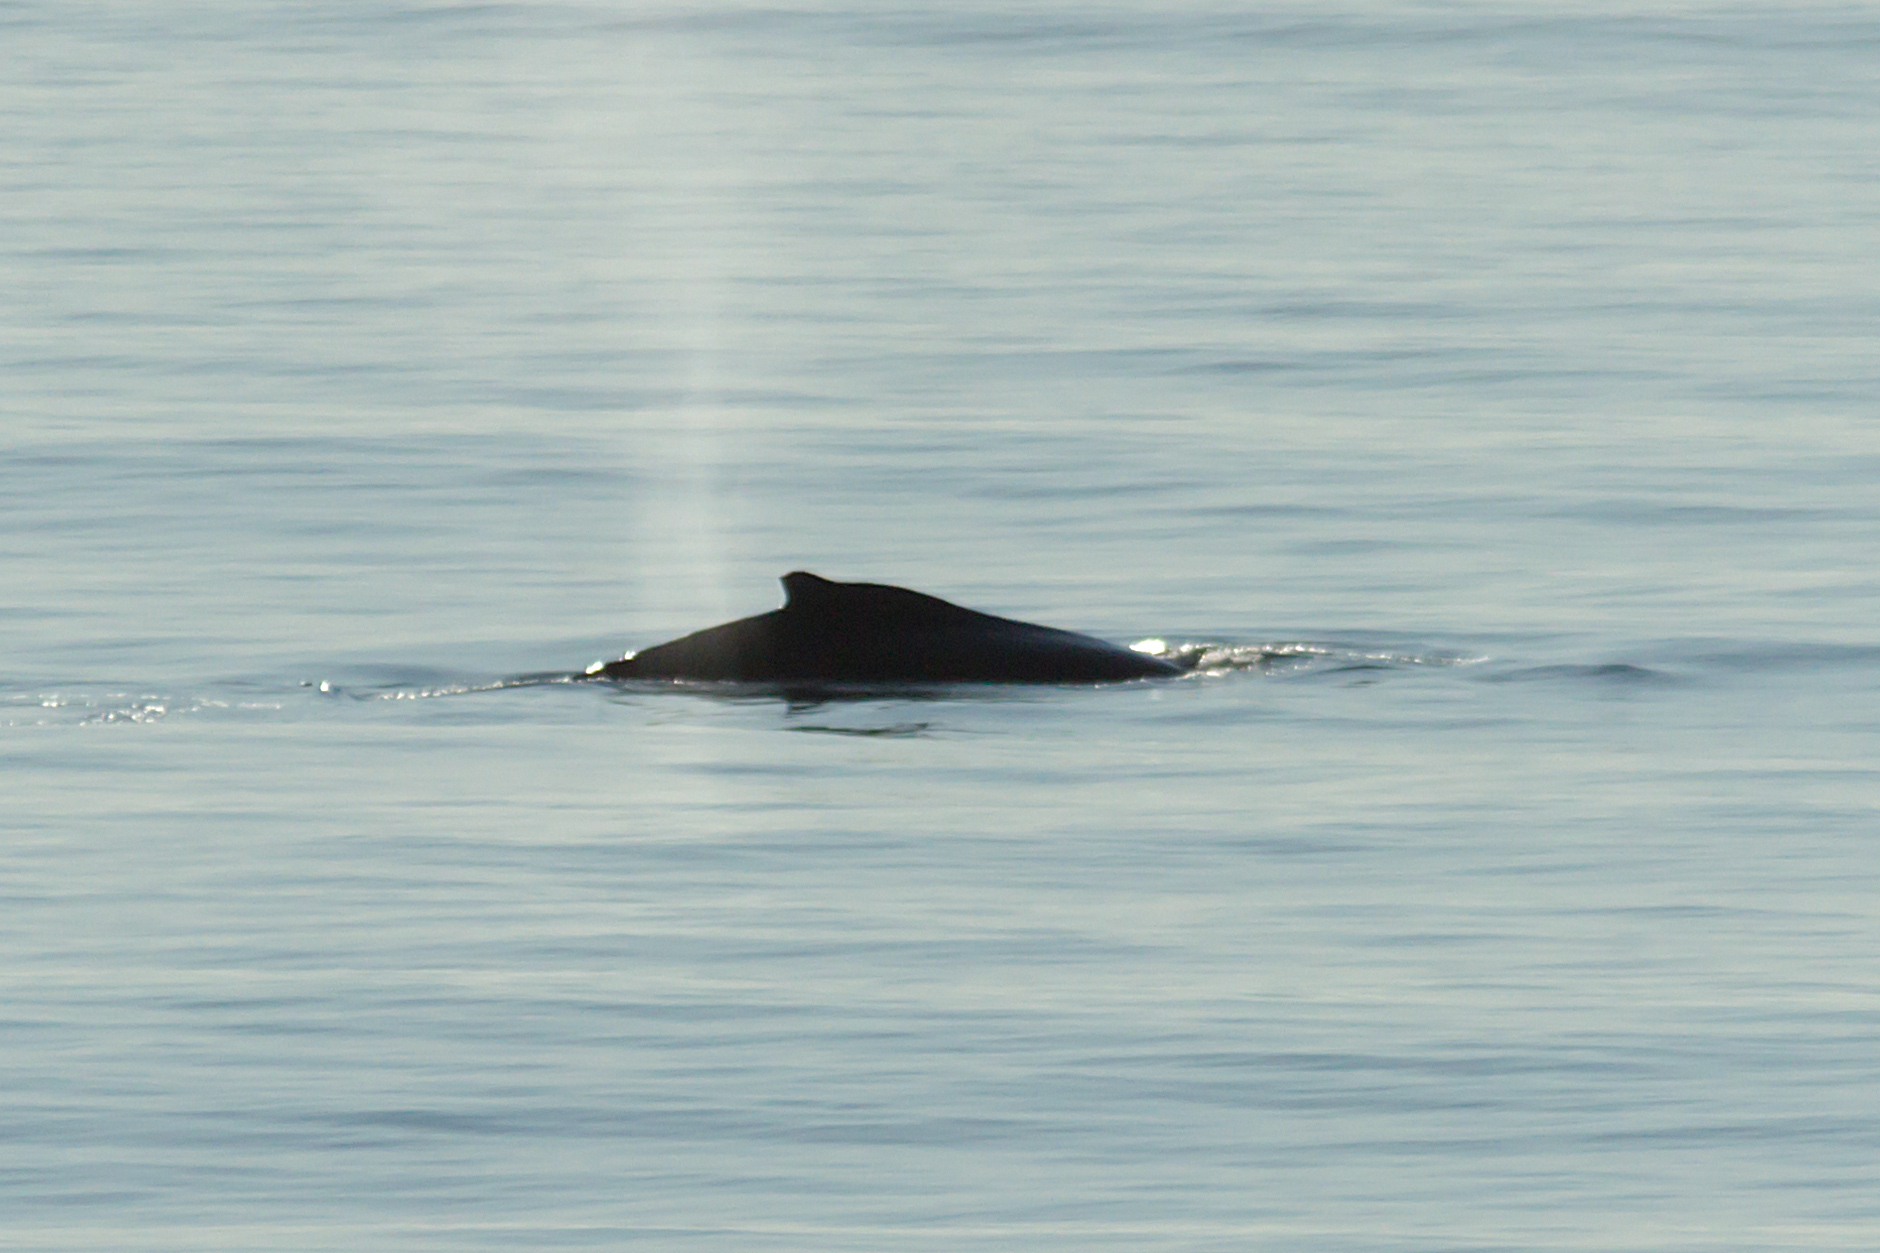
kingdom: Animalia
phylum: Chordata
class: Mammalia
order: Cetacea
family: Balaenopteridae
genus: Megaptera
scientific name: Megaptera novaeangliae
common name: Humpback whale
